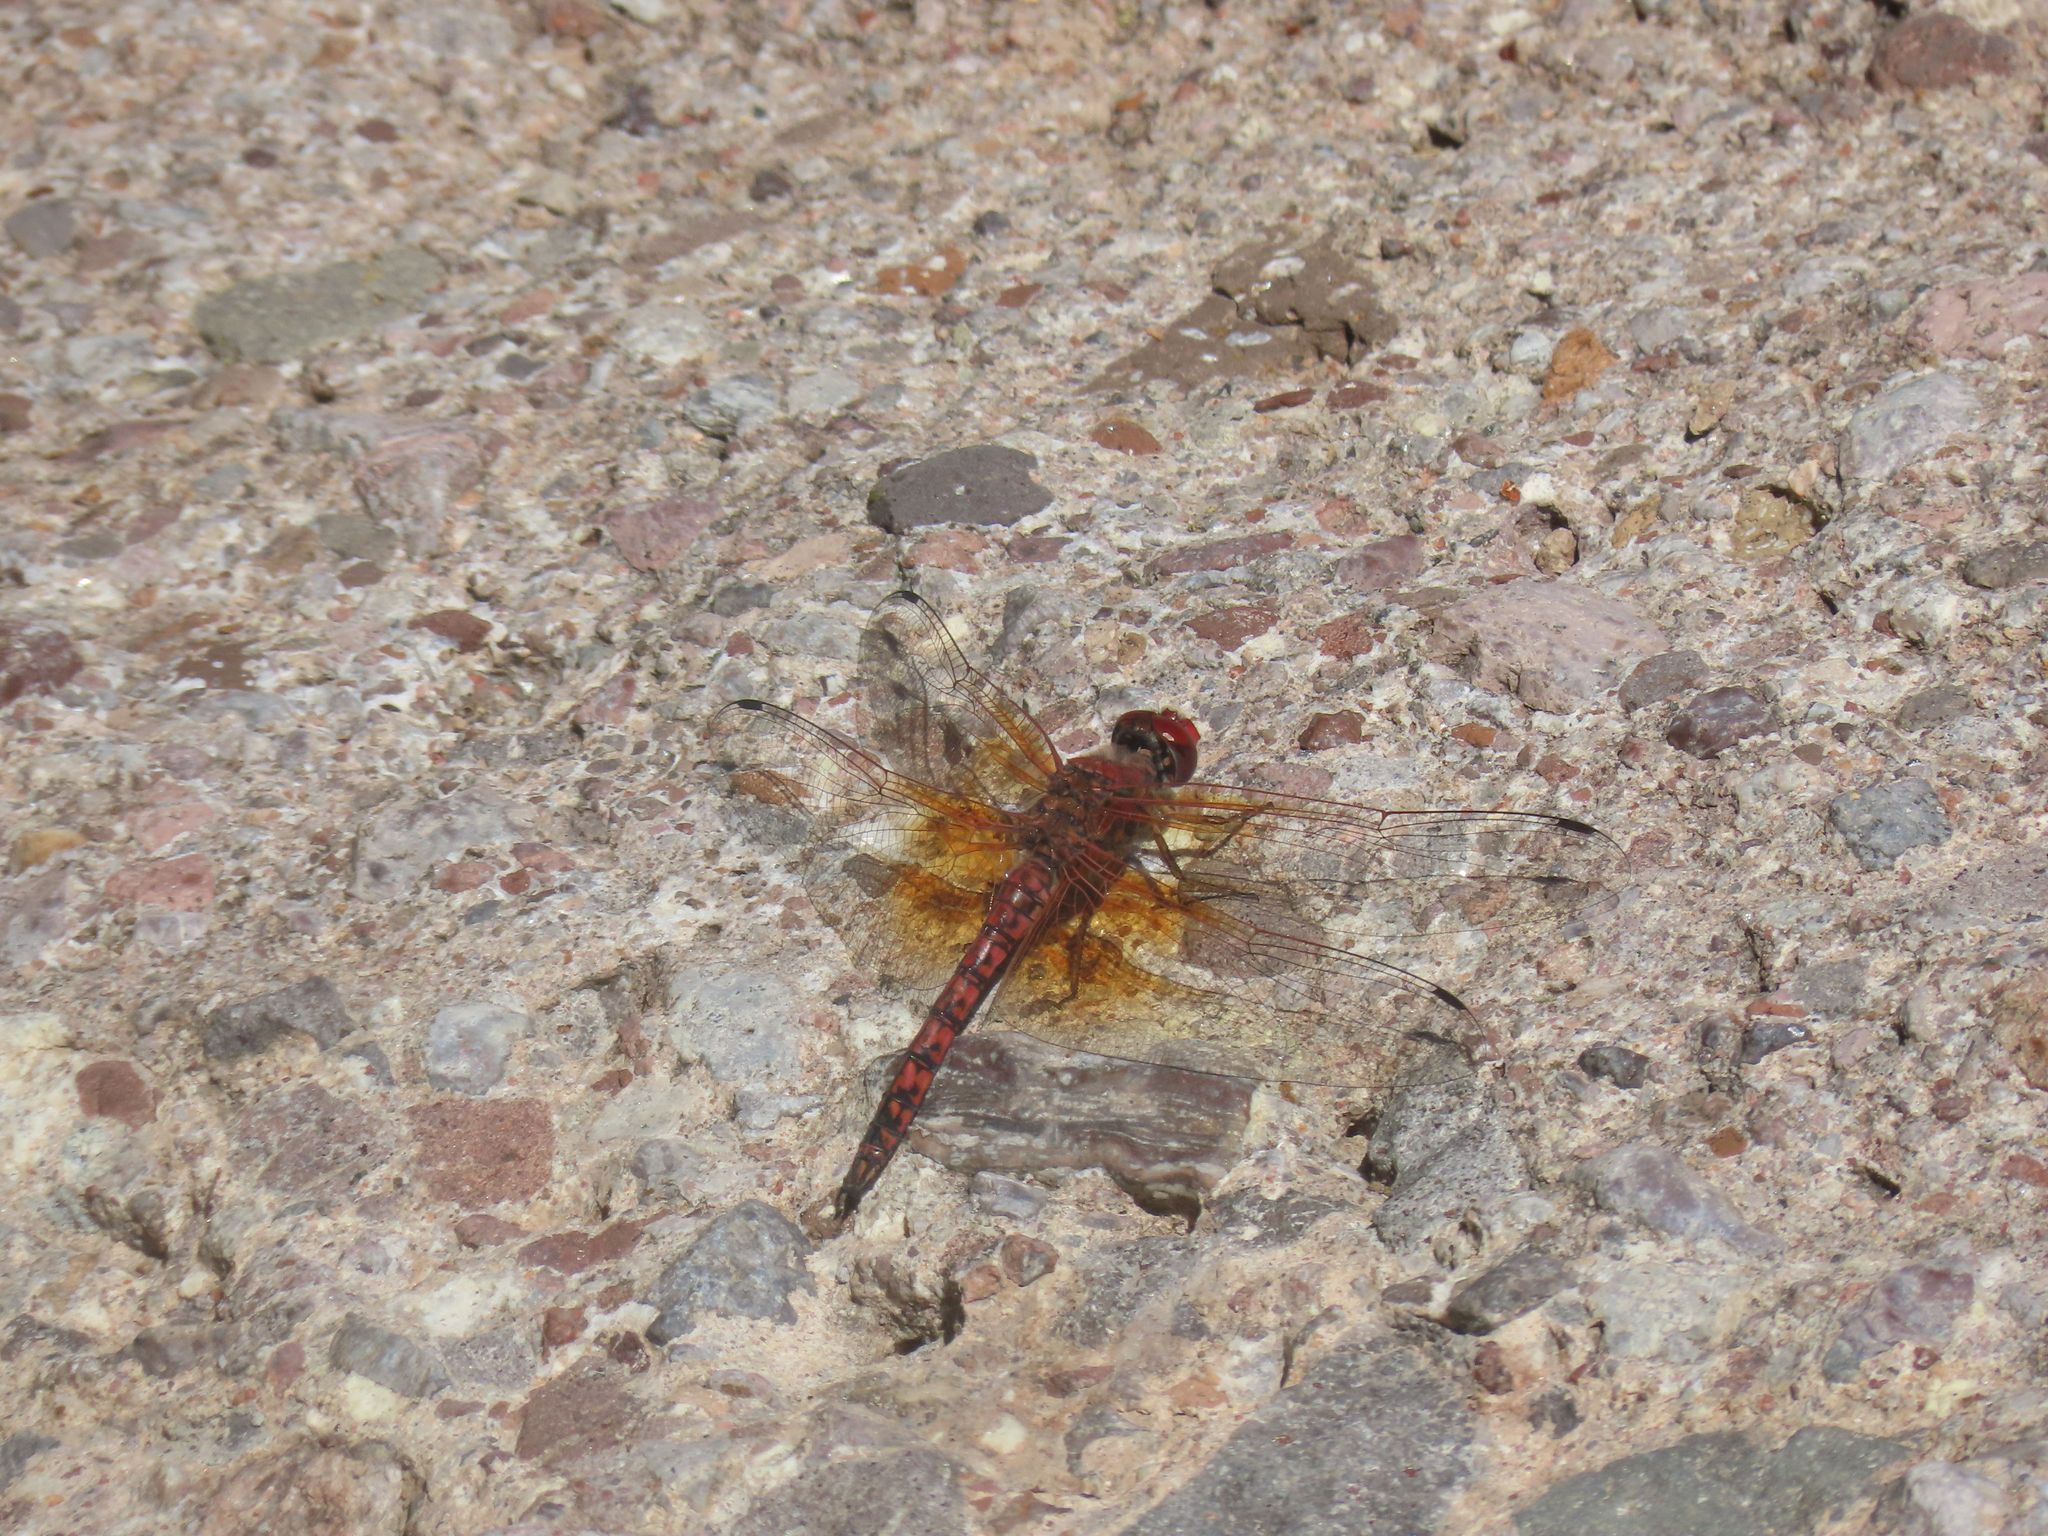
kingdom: Animalia
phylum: Arthropoda
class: Insecta
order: Odonata
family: Libellulidae
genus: Paltothemis
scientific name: Paltothemis lineatipes
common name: Red rock skimmer
